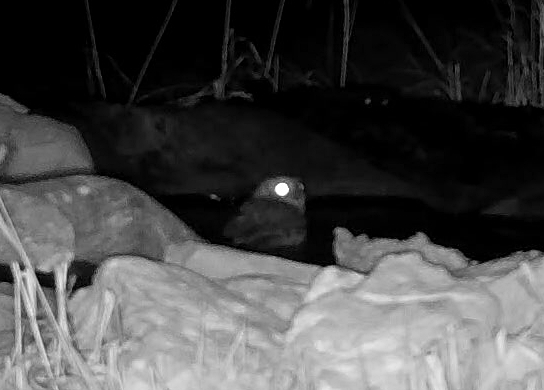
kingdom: Animalia
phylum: Chordata
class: Aves
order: Strigiformes
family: Strigidae
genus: Megascops
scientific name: Megascops asio
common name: Eastern screech-owl
